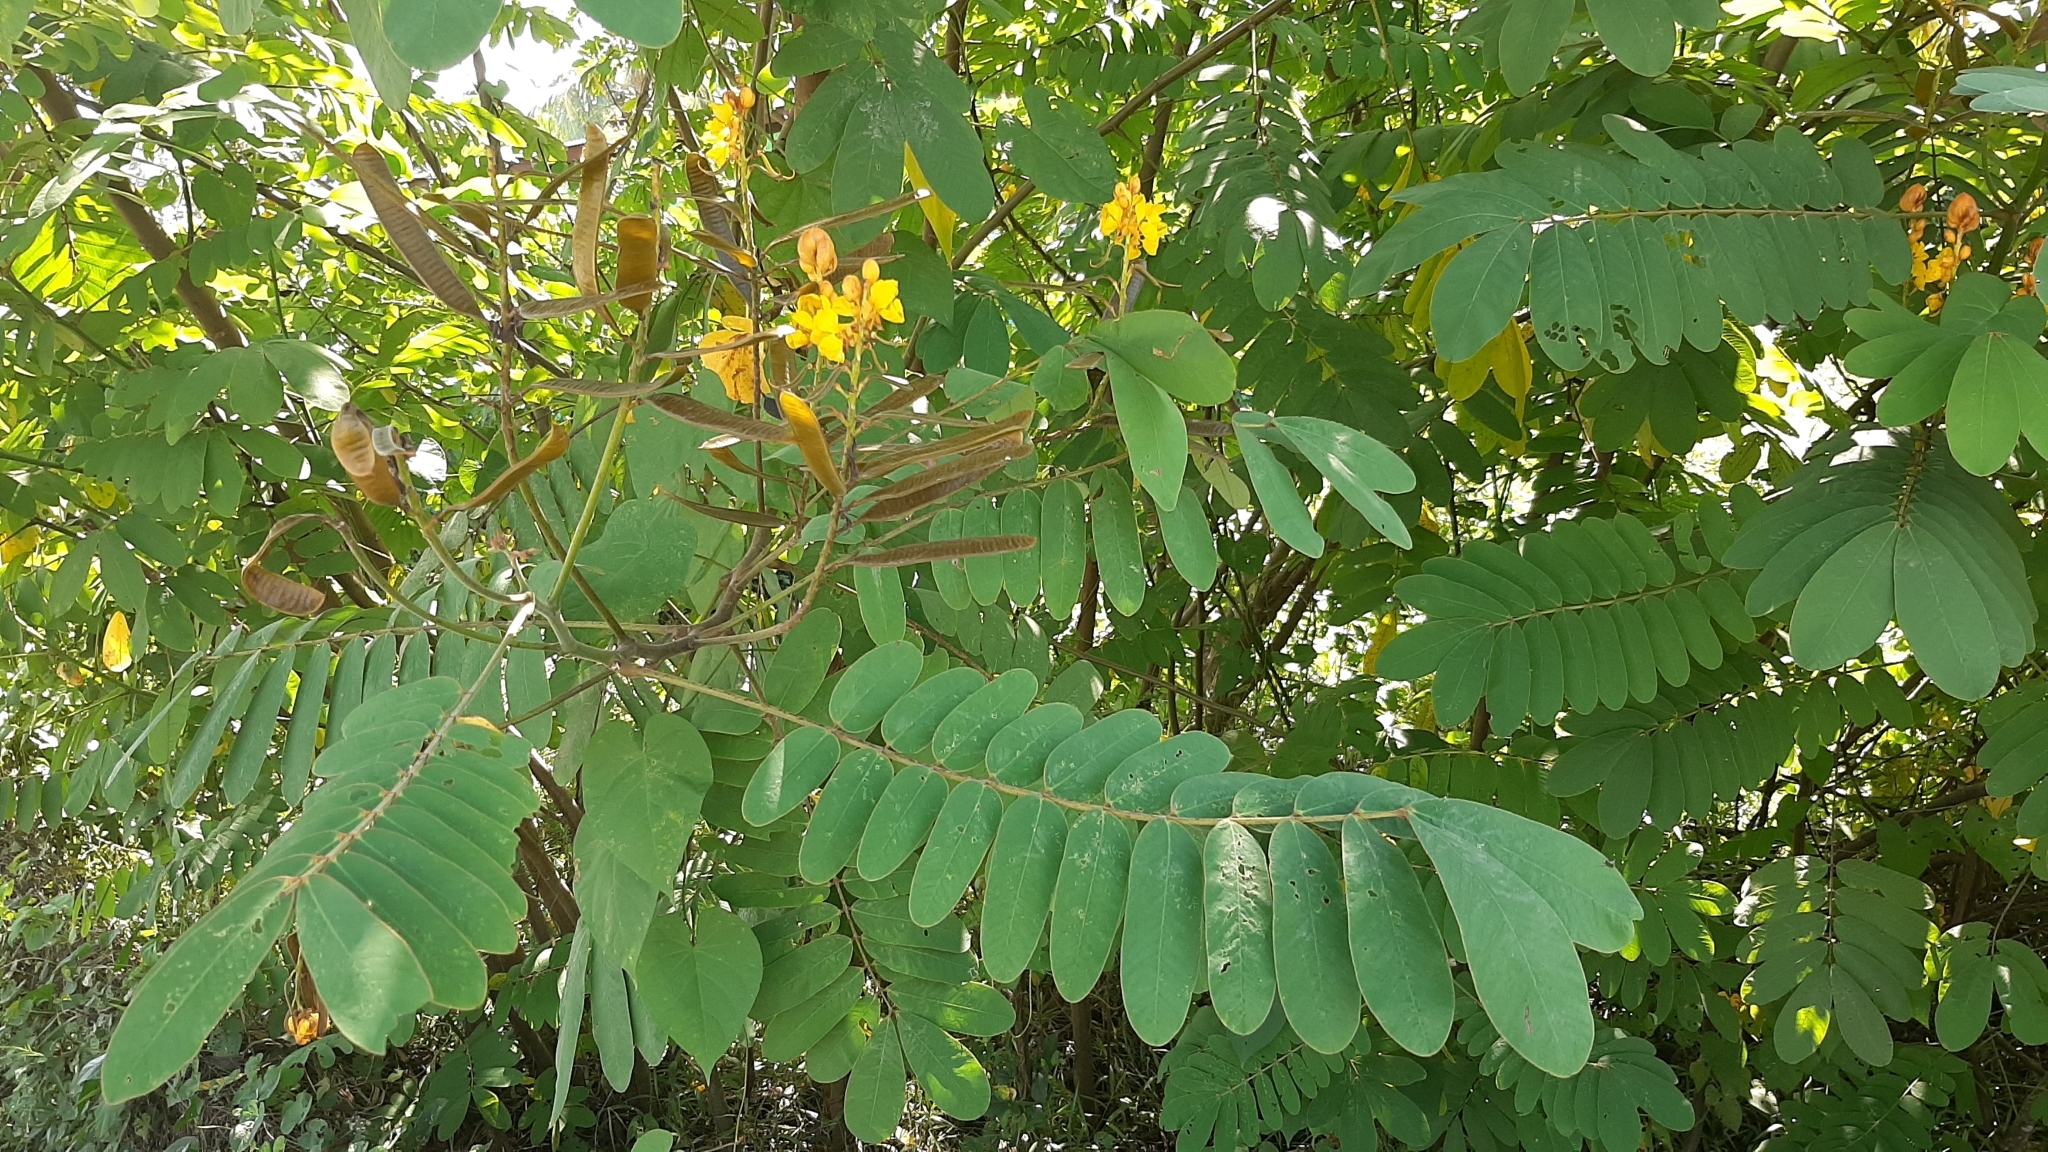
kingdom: Plantae
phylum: Tracheophyta
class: Magnoliopsida
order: Fabales
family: Fabaceae
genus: Senna
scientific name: Senna reticulata
